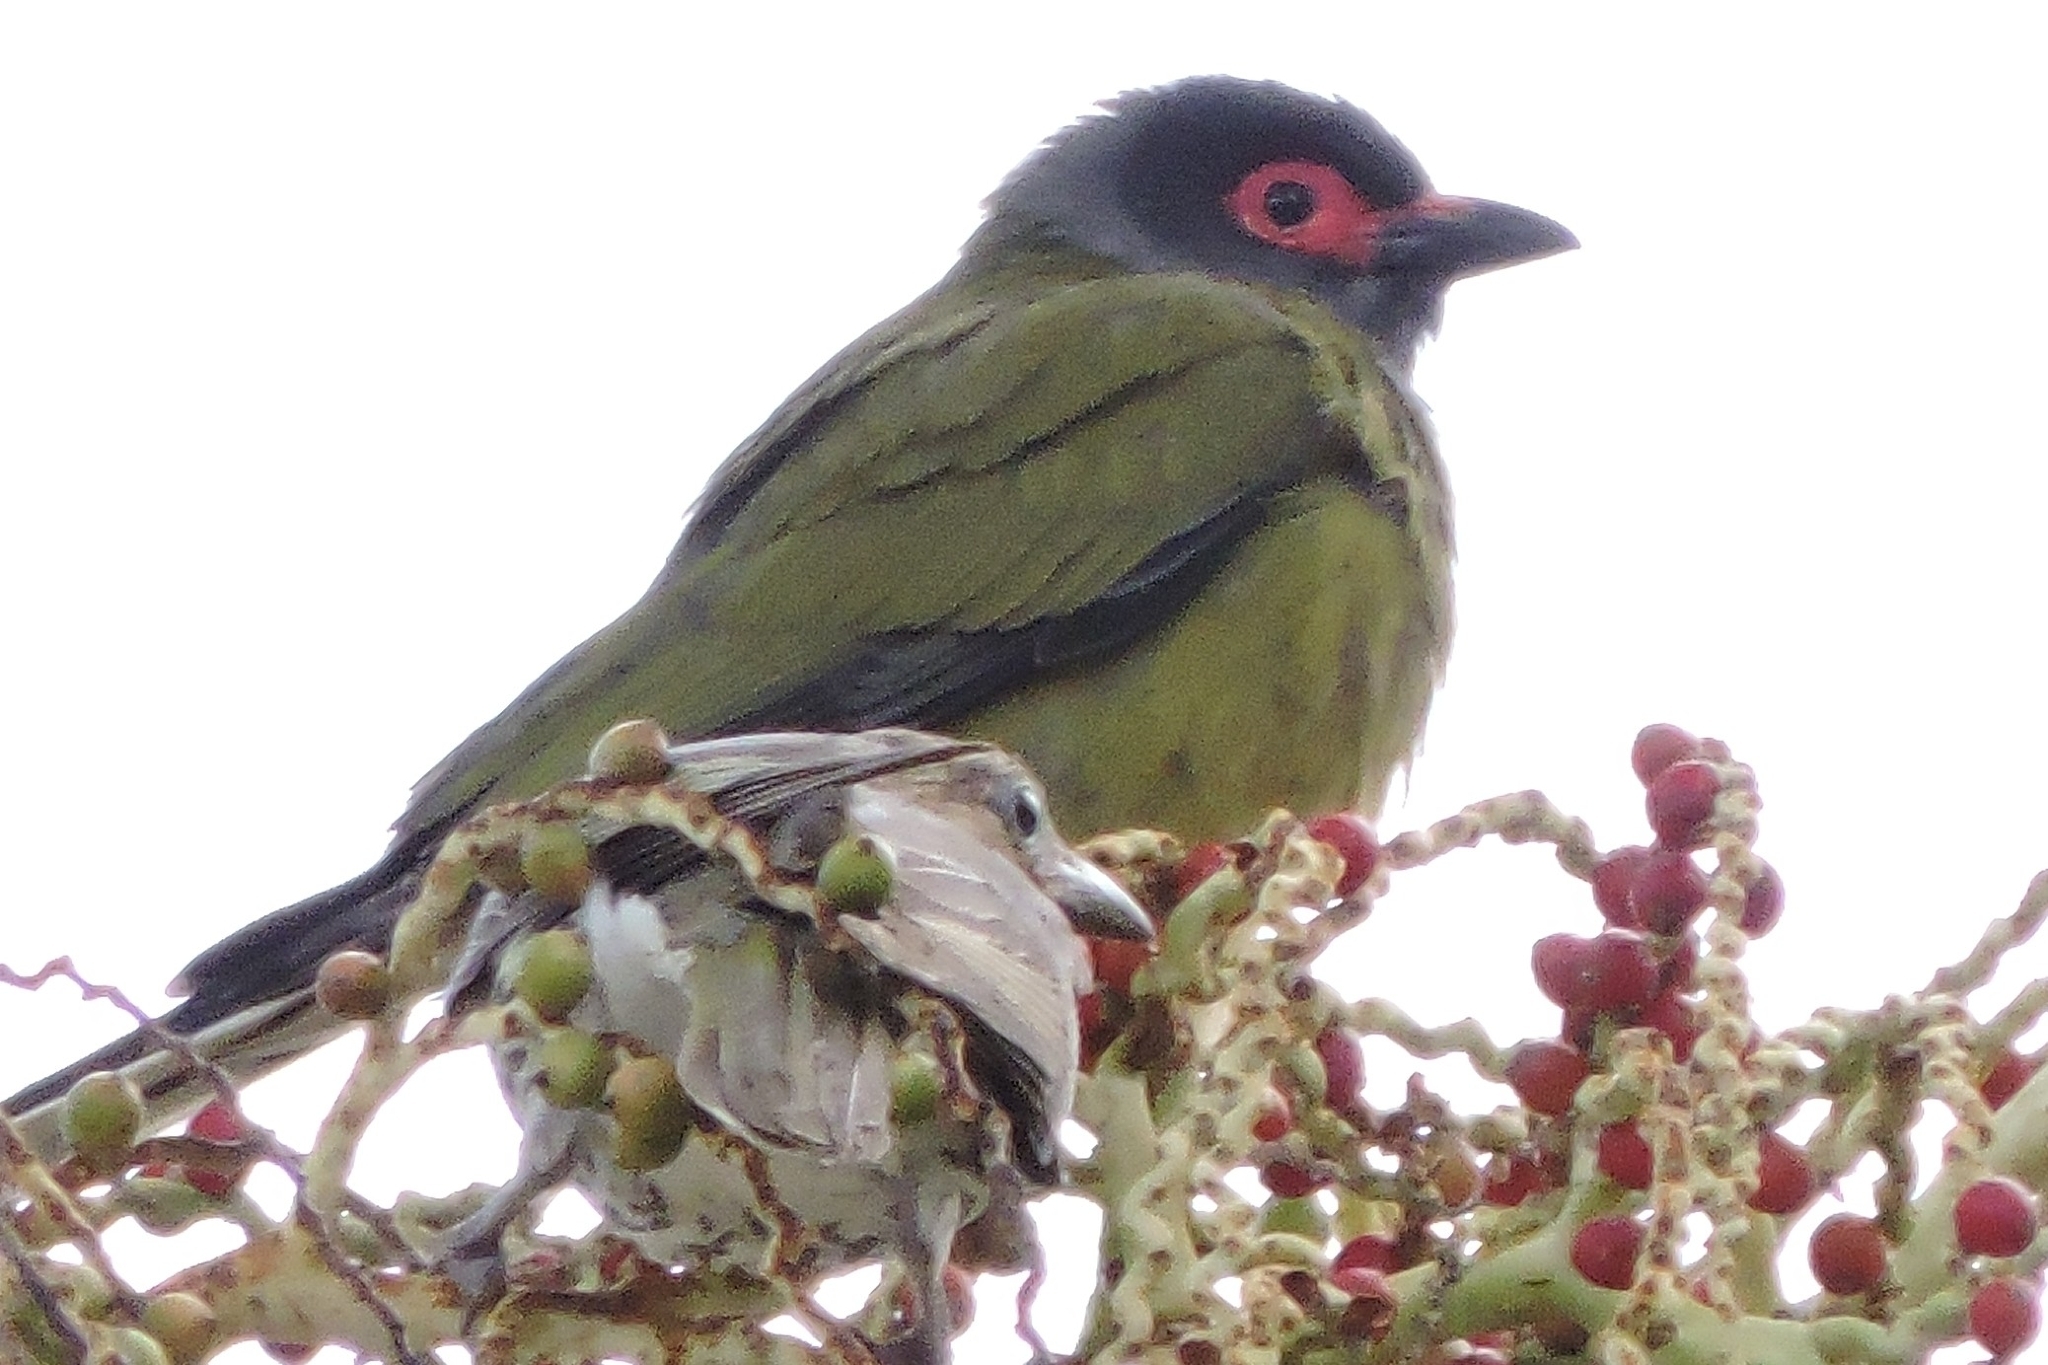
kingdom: Animalia
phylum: Chordata
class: Aves
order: Passeriformes
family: Oriolidae
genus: Sphecotheres
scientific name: Sphecotheres vieilloti
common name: Australasian figbird
